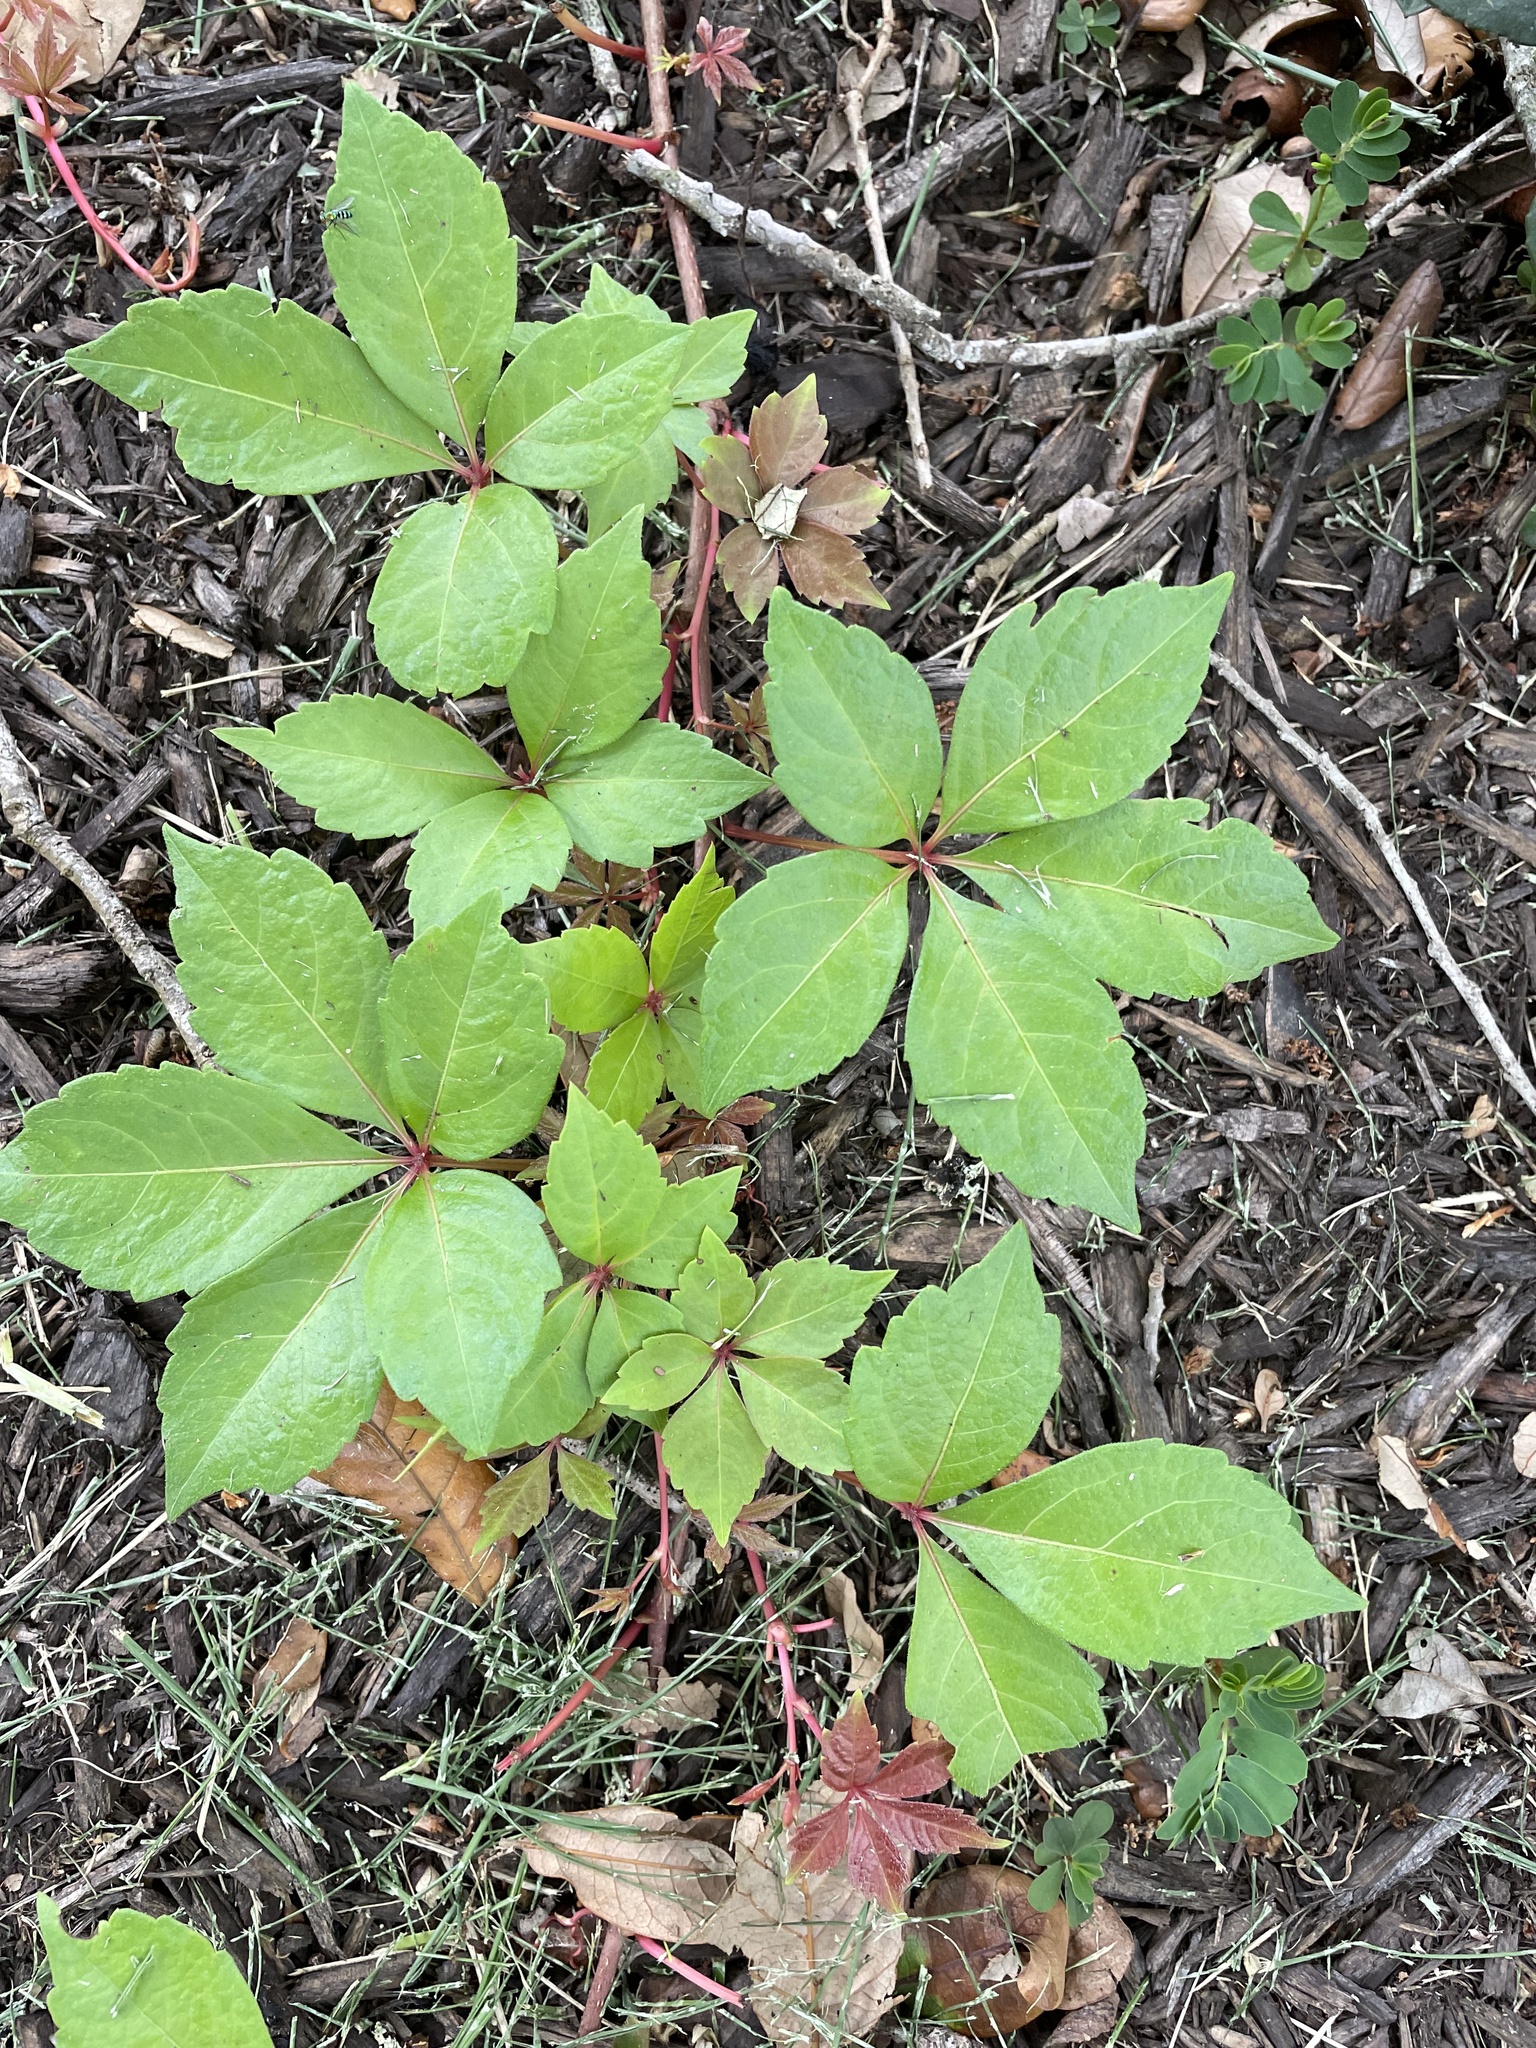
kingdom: Plantae
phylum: Tracheophyta
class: Magnoliopsida
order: Vitales
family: Vitaceae
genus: Parthenocissus
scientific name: Parthenocissus quinquefolia
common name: Virginia-creeper
